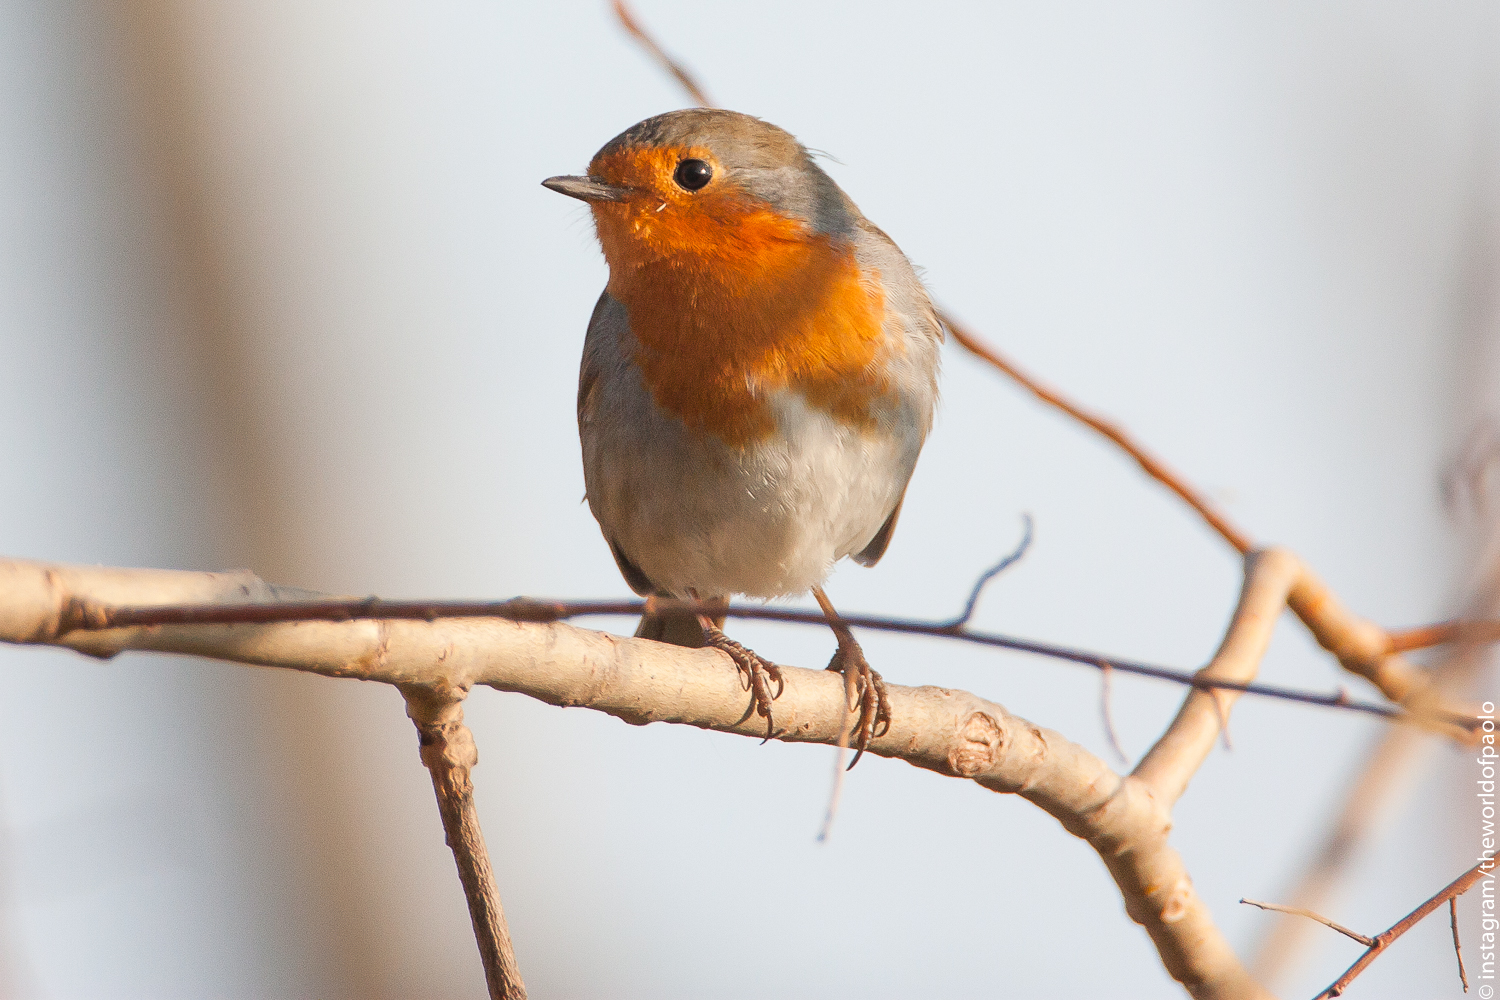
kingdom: Animalia
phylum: Chordata
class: Aves
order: Passeriformes
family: Muscicapidae
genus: Erithacus
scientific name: Erithacus rubecula
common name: European robin
